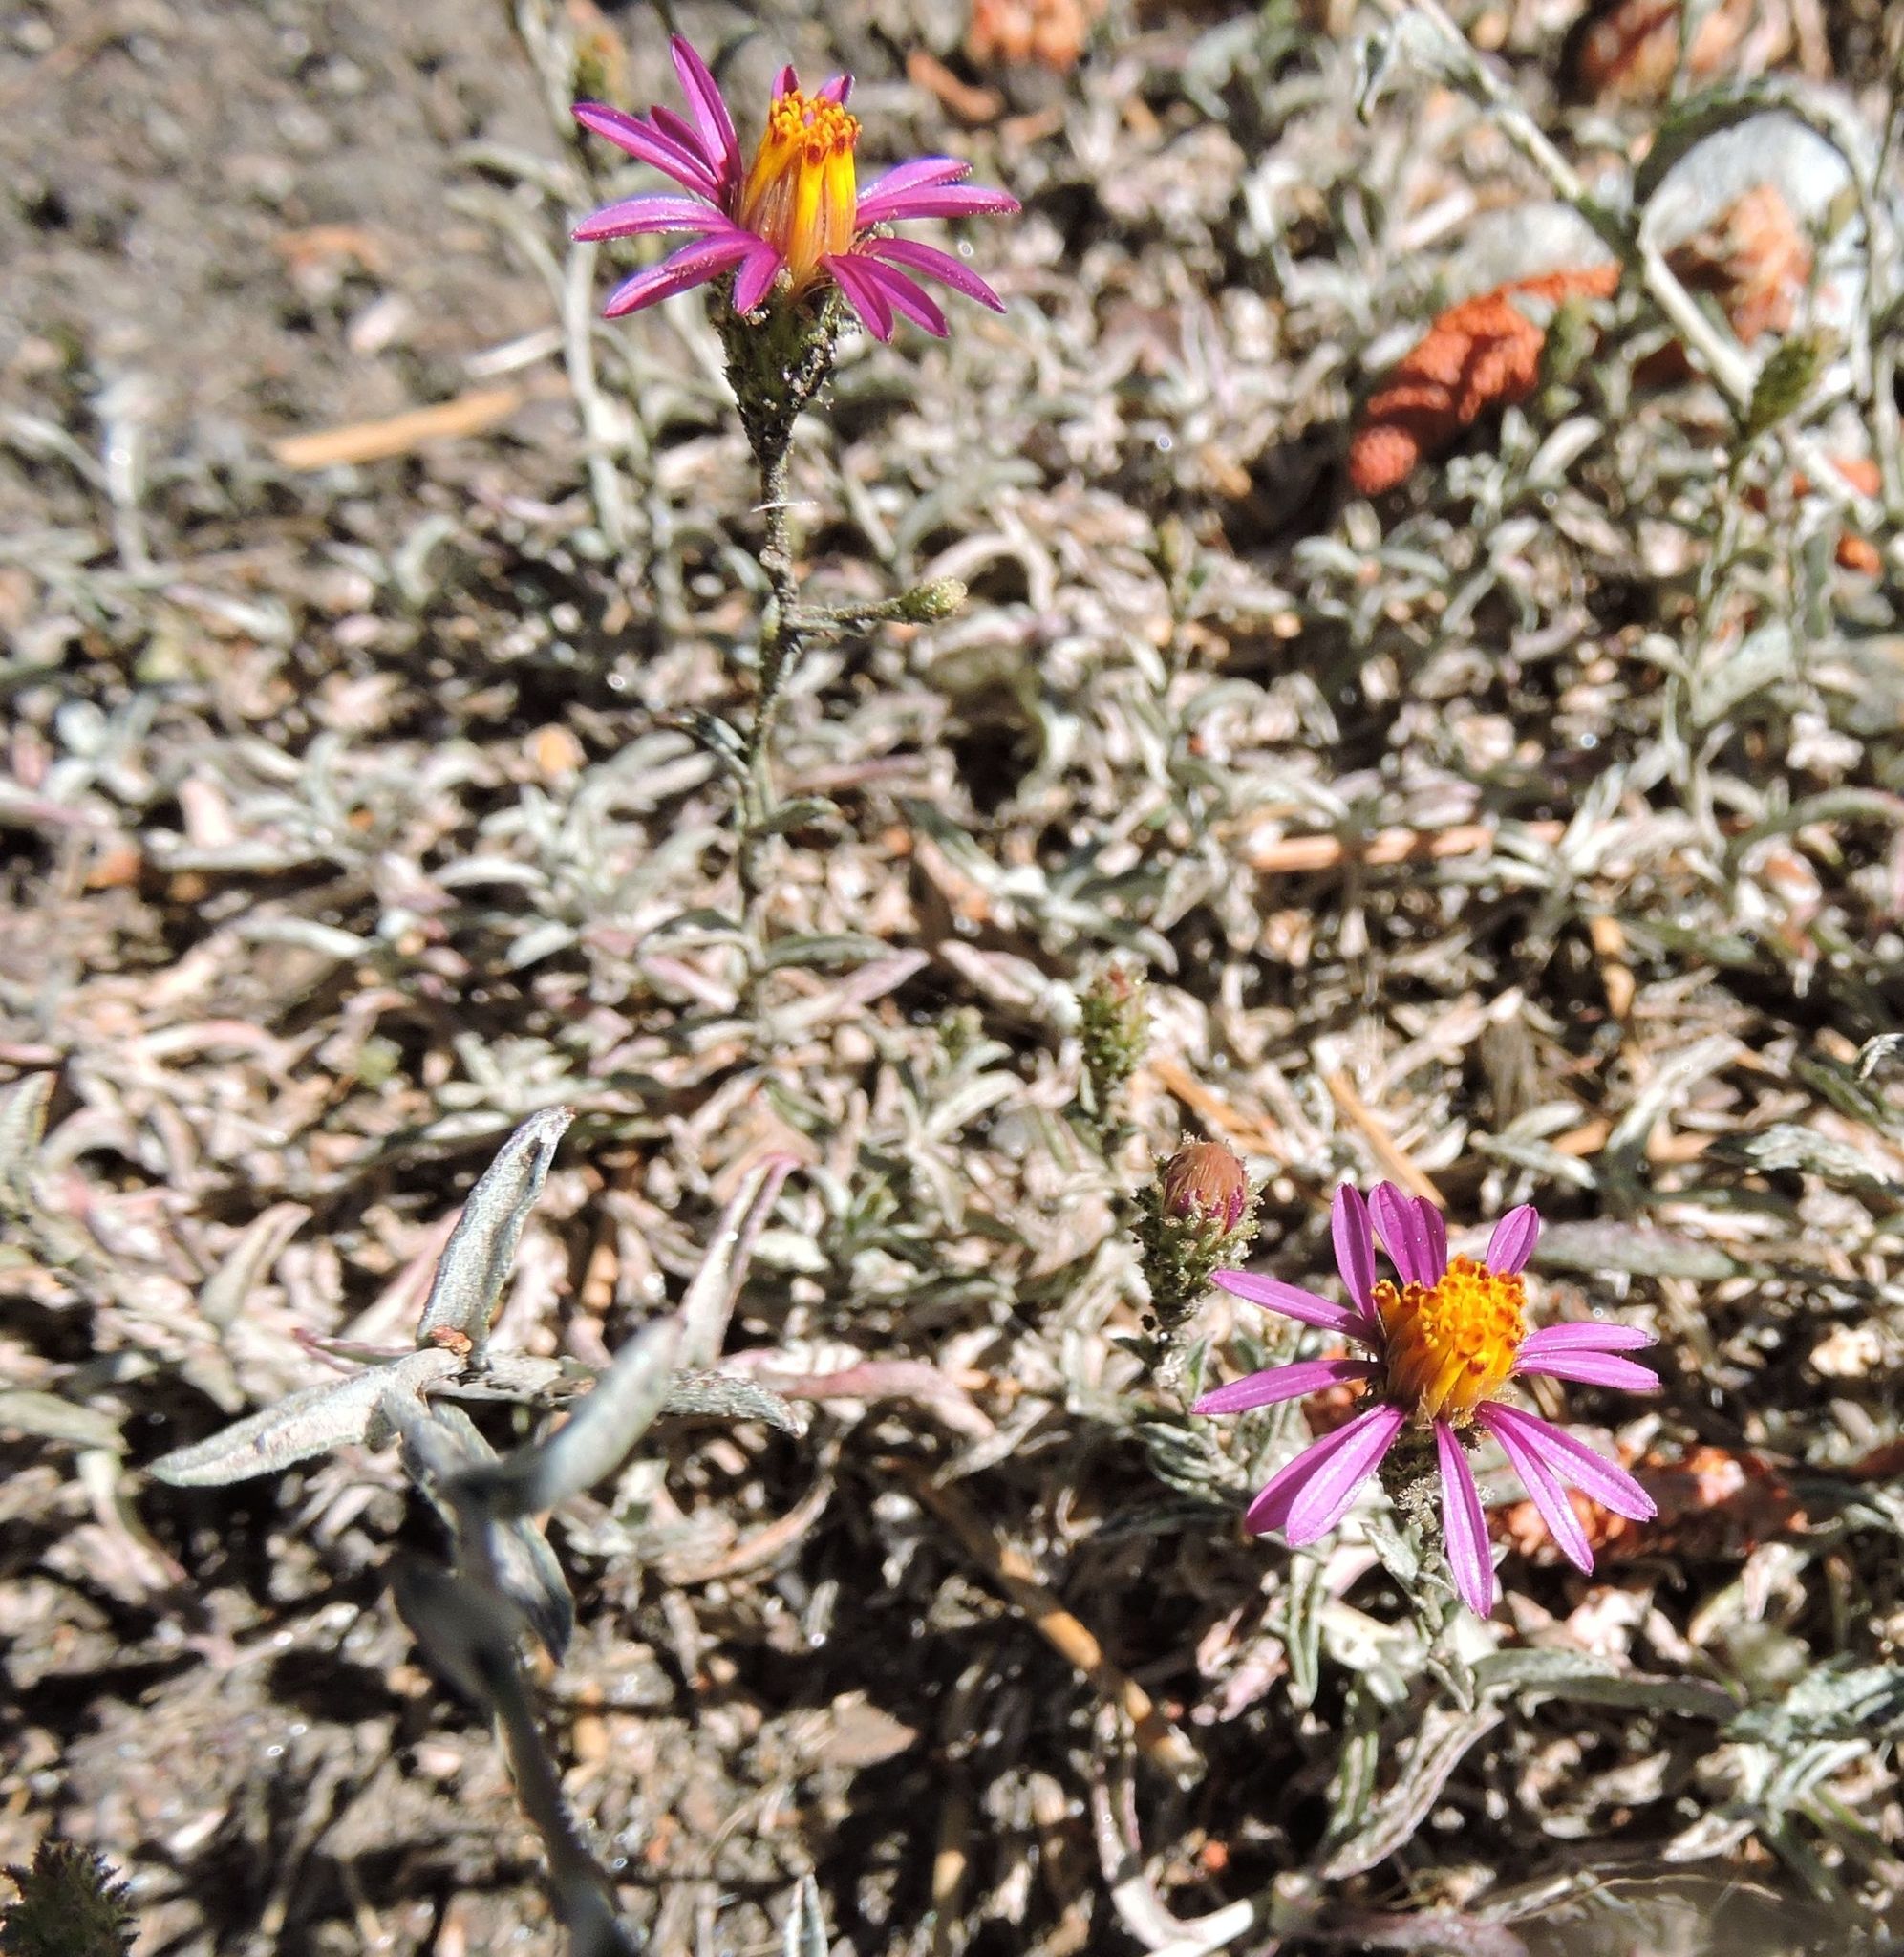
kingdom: Plantae
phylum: Tracheophyta
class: Magnoliopsida
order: Asterales
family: Asteraceae
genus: Corethrogyne
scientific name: Corethrogyne filaginifolia
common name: Sand-aster
